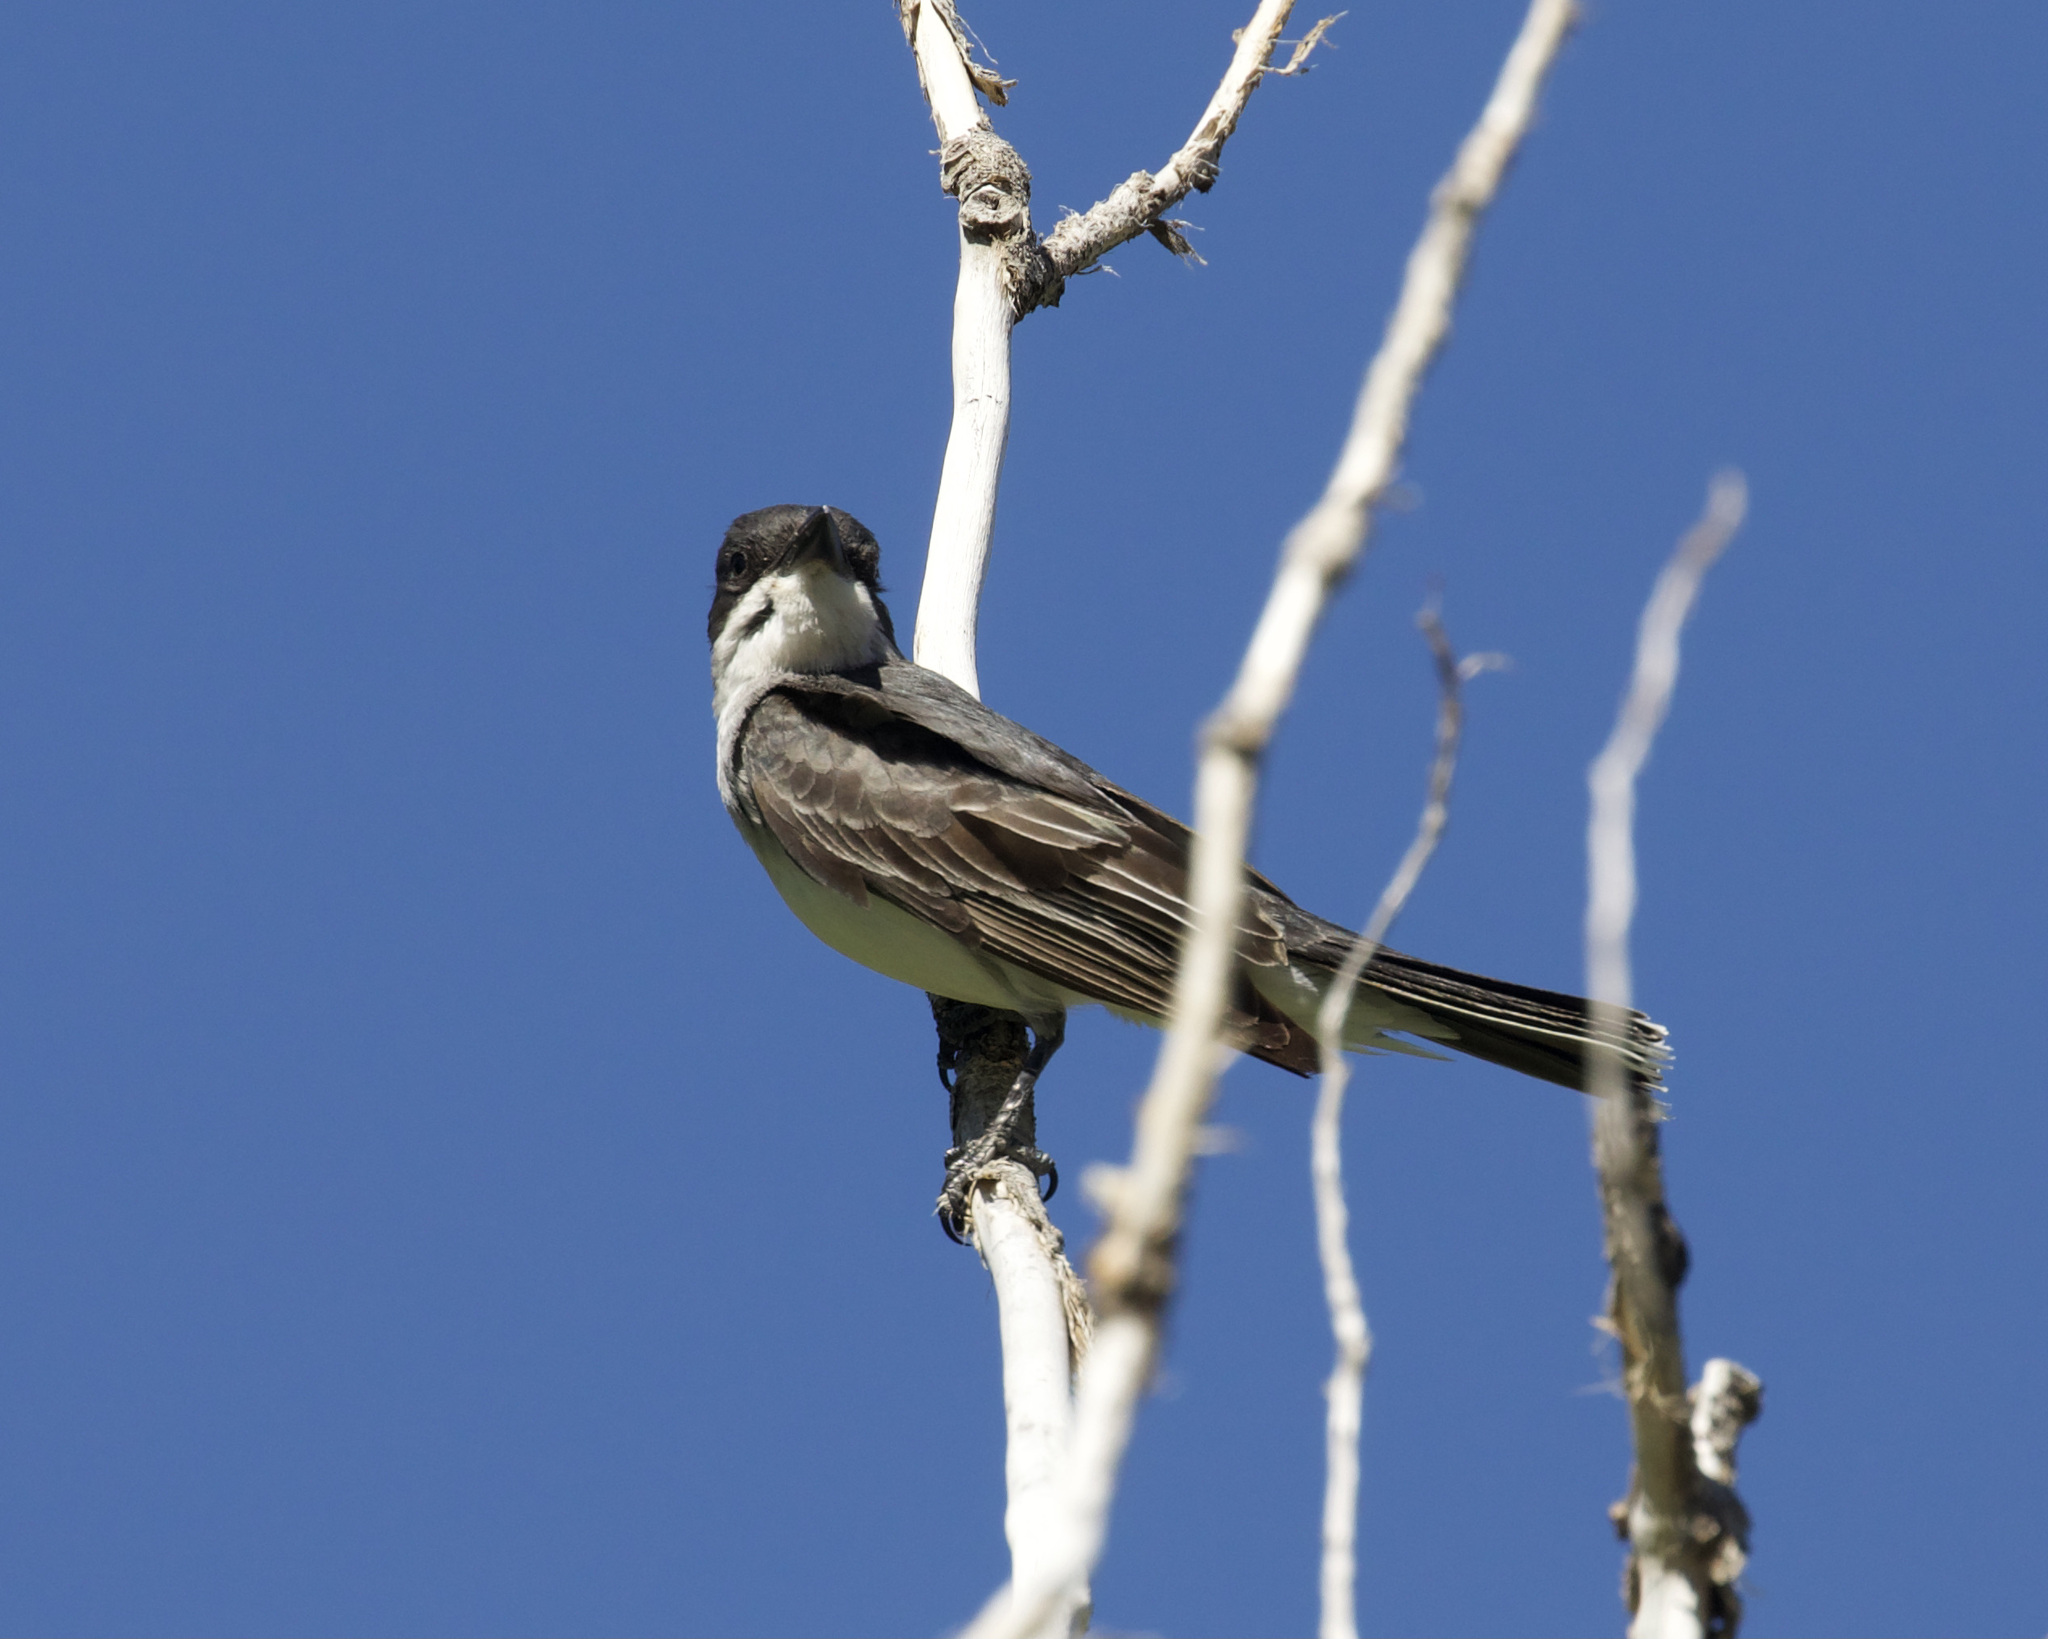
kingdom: Animalia
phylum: Chordata
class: Aves
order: Passeriformes
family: Tyrannidae
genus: Tyrannus
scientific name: Tyrannus tyrannus
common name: Eastern kingbird
